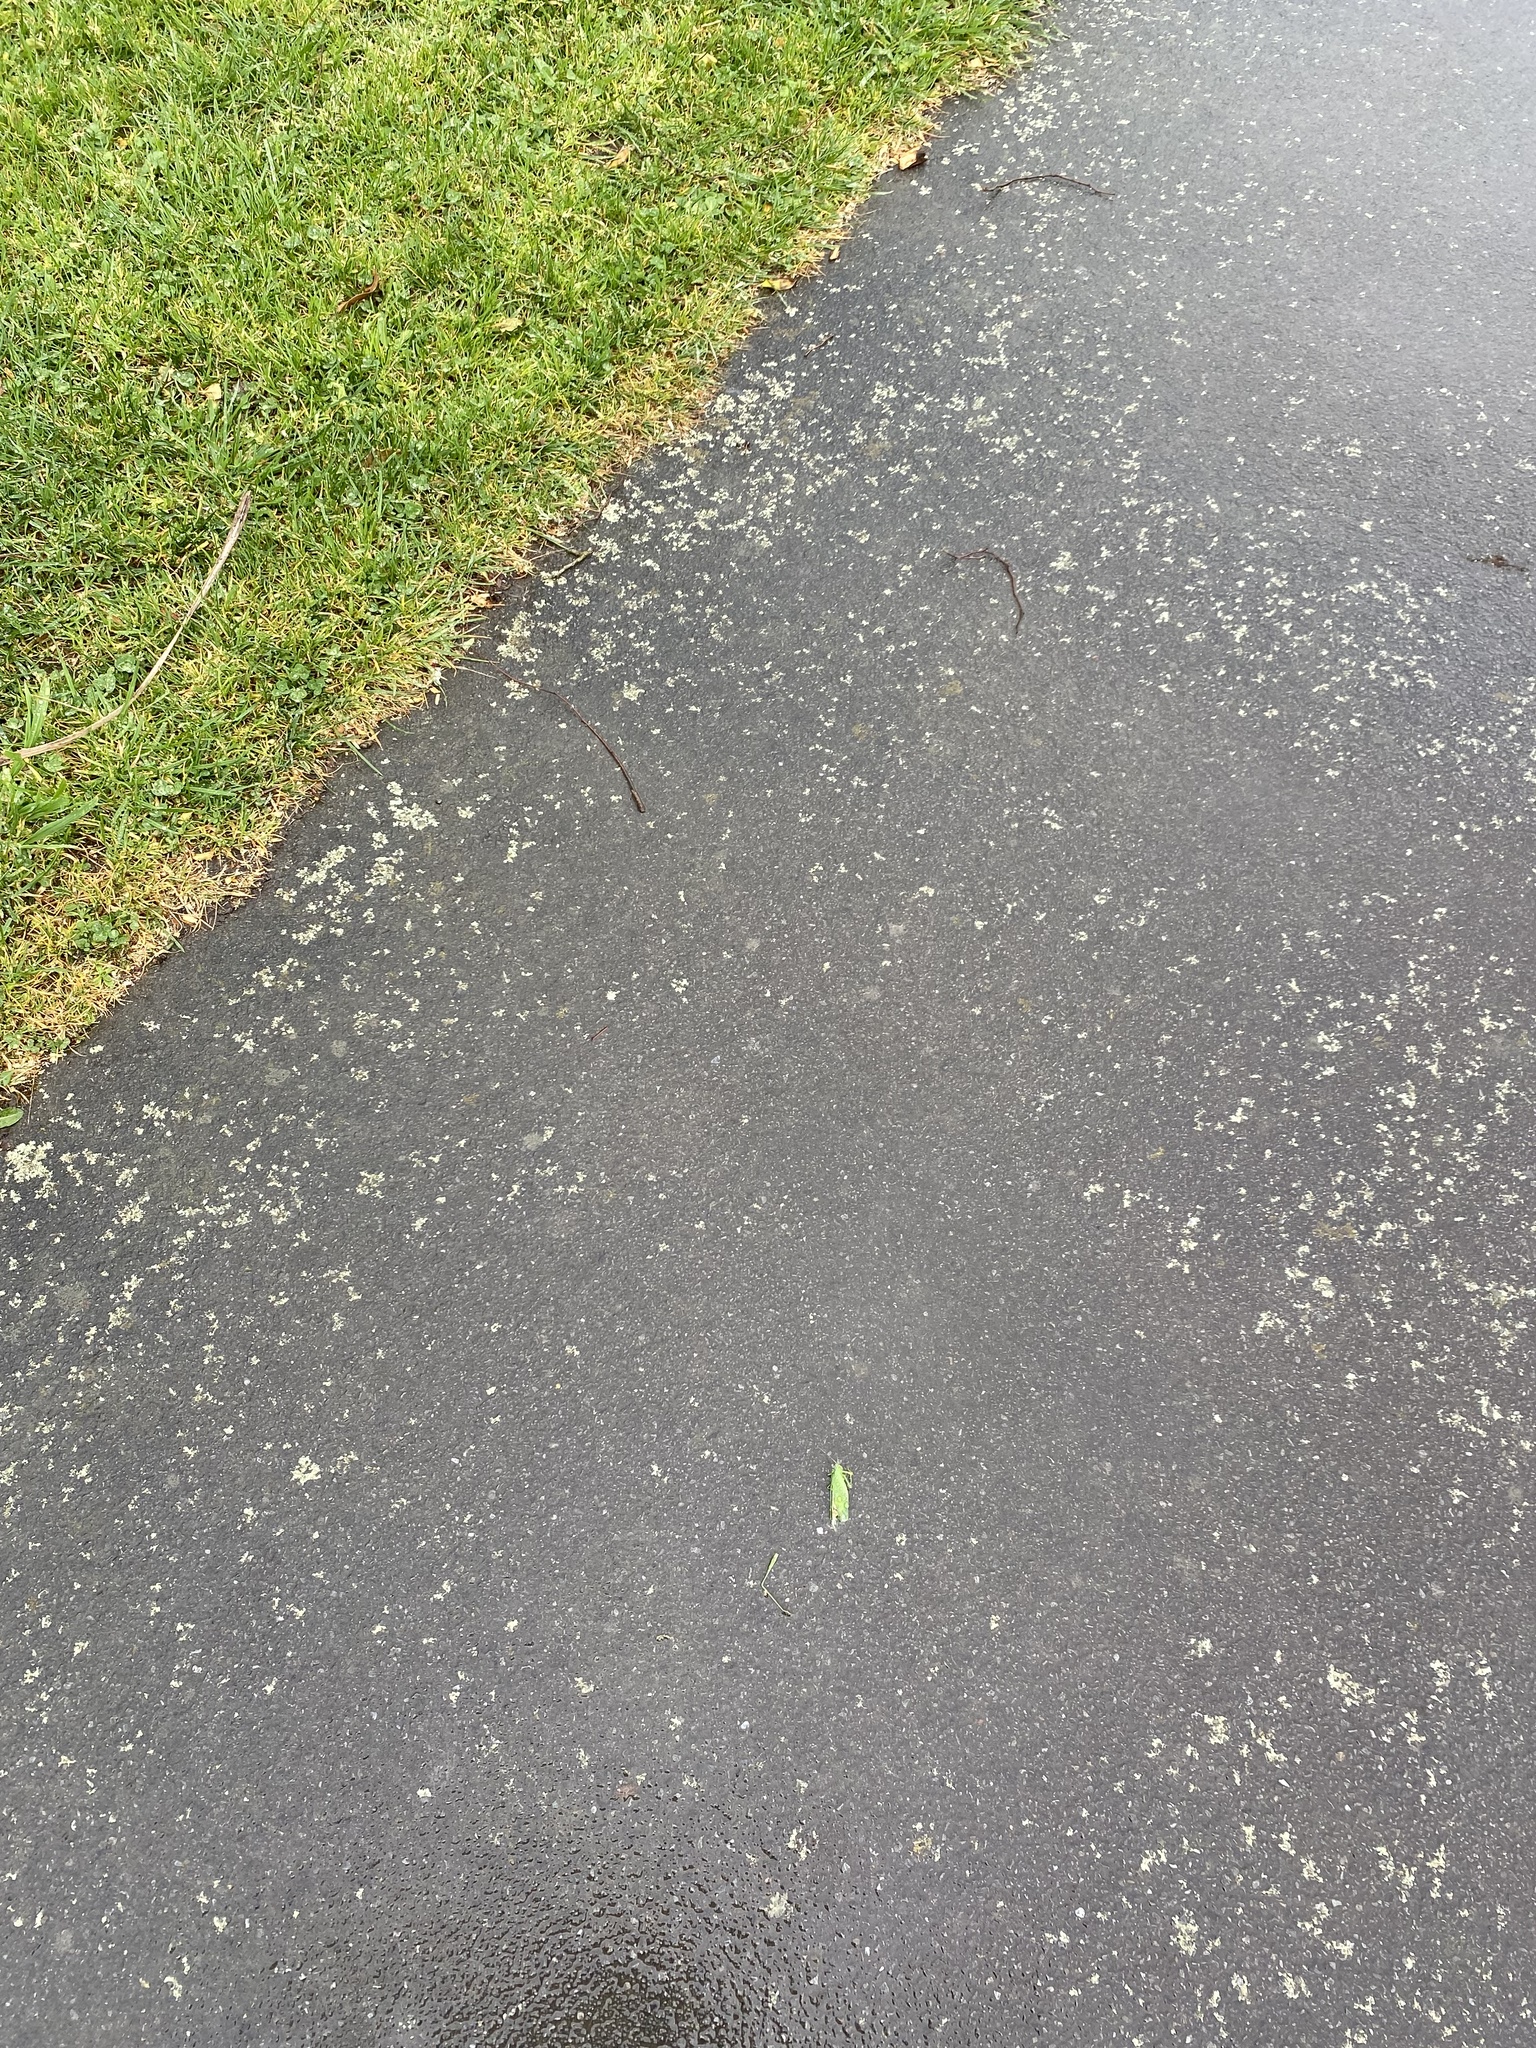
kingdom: Animalia
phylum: Arthropoda
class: Insecta
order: Orthoptera
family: Tettigoniidae
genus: Caedicia
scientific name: Caedicia simplex
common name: Common garden katydid
